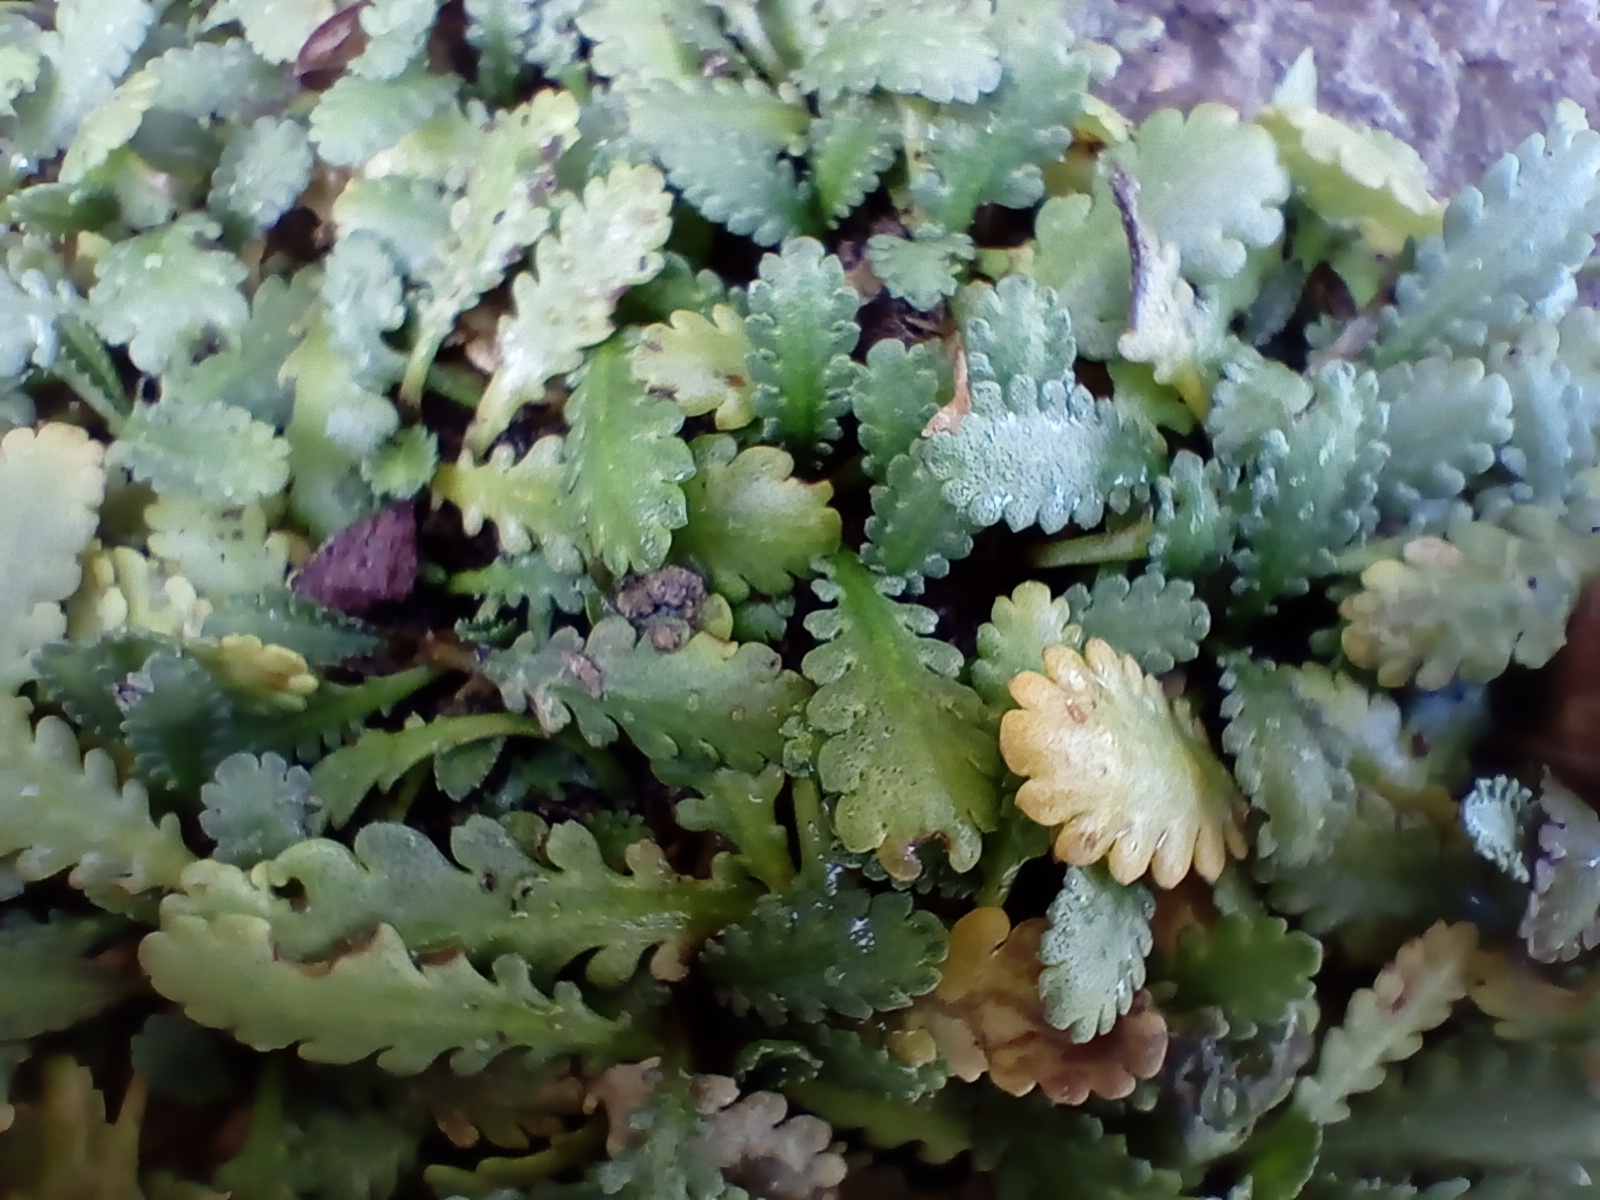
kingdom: Plantae
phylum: Tracheophyta
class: Magnoliopsida
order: Asterales
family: Asteraceae
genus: Leptinella
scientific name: Leptinella dioica
